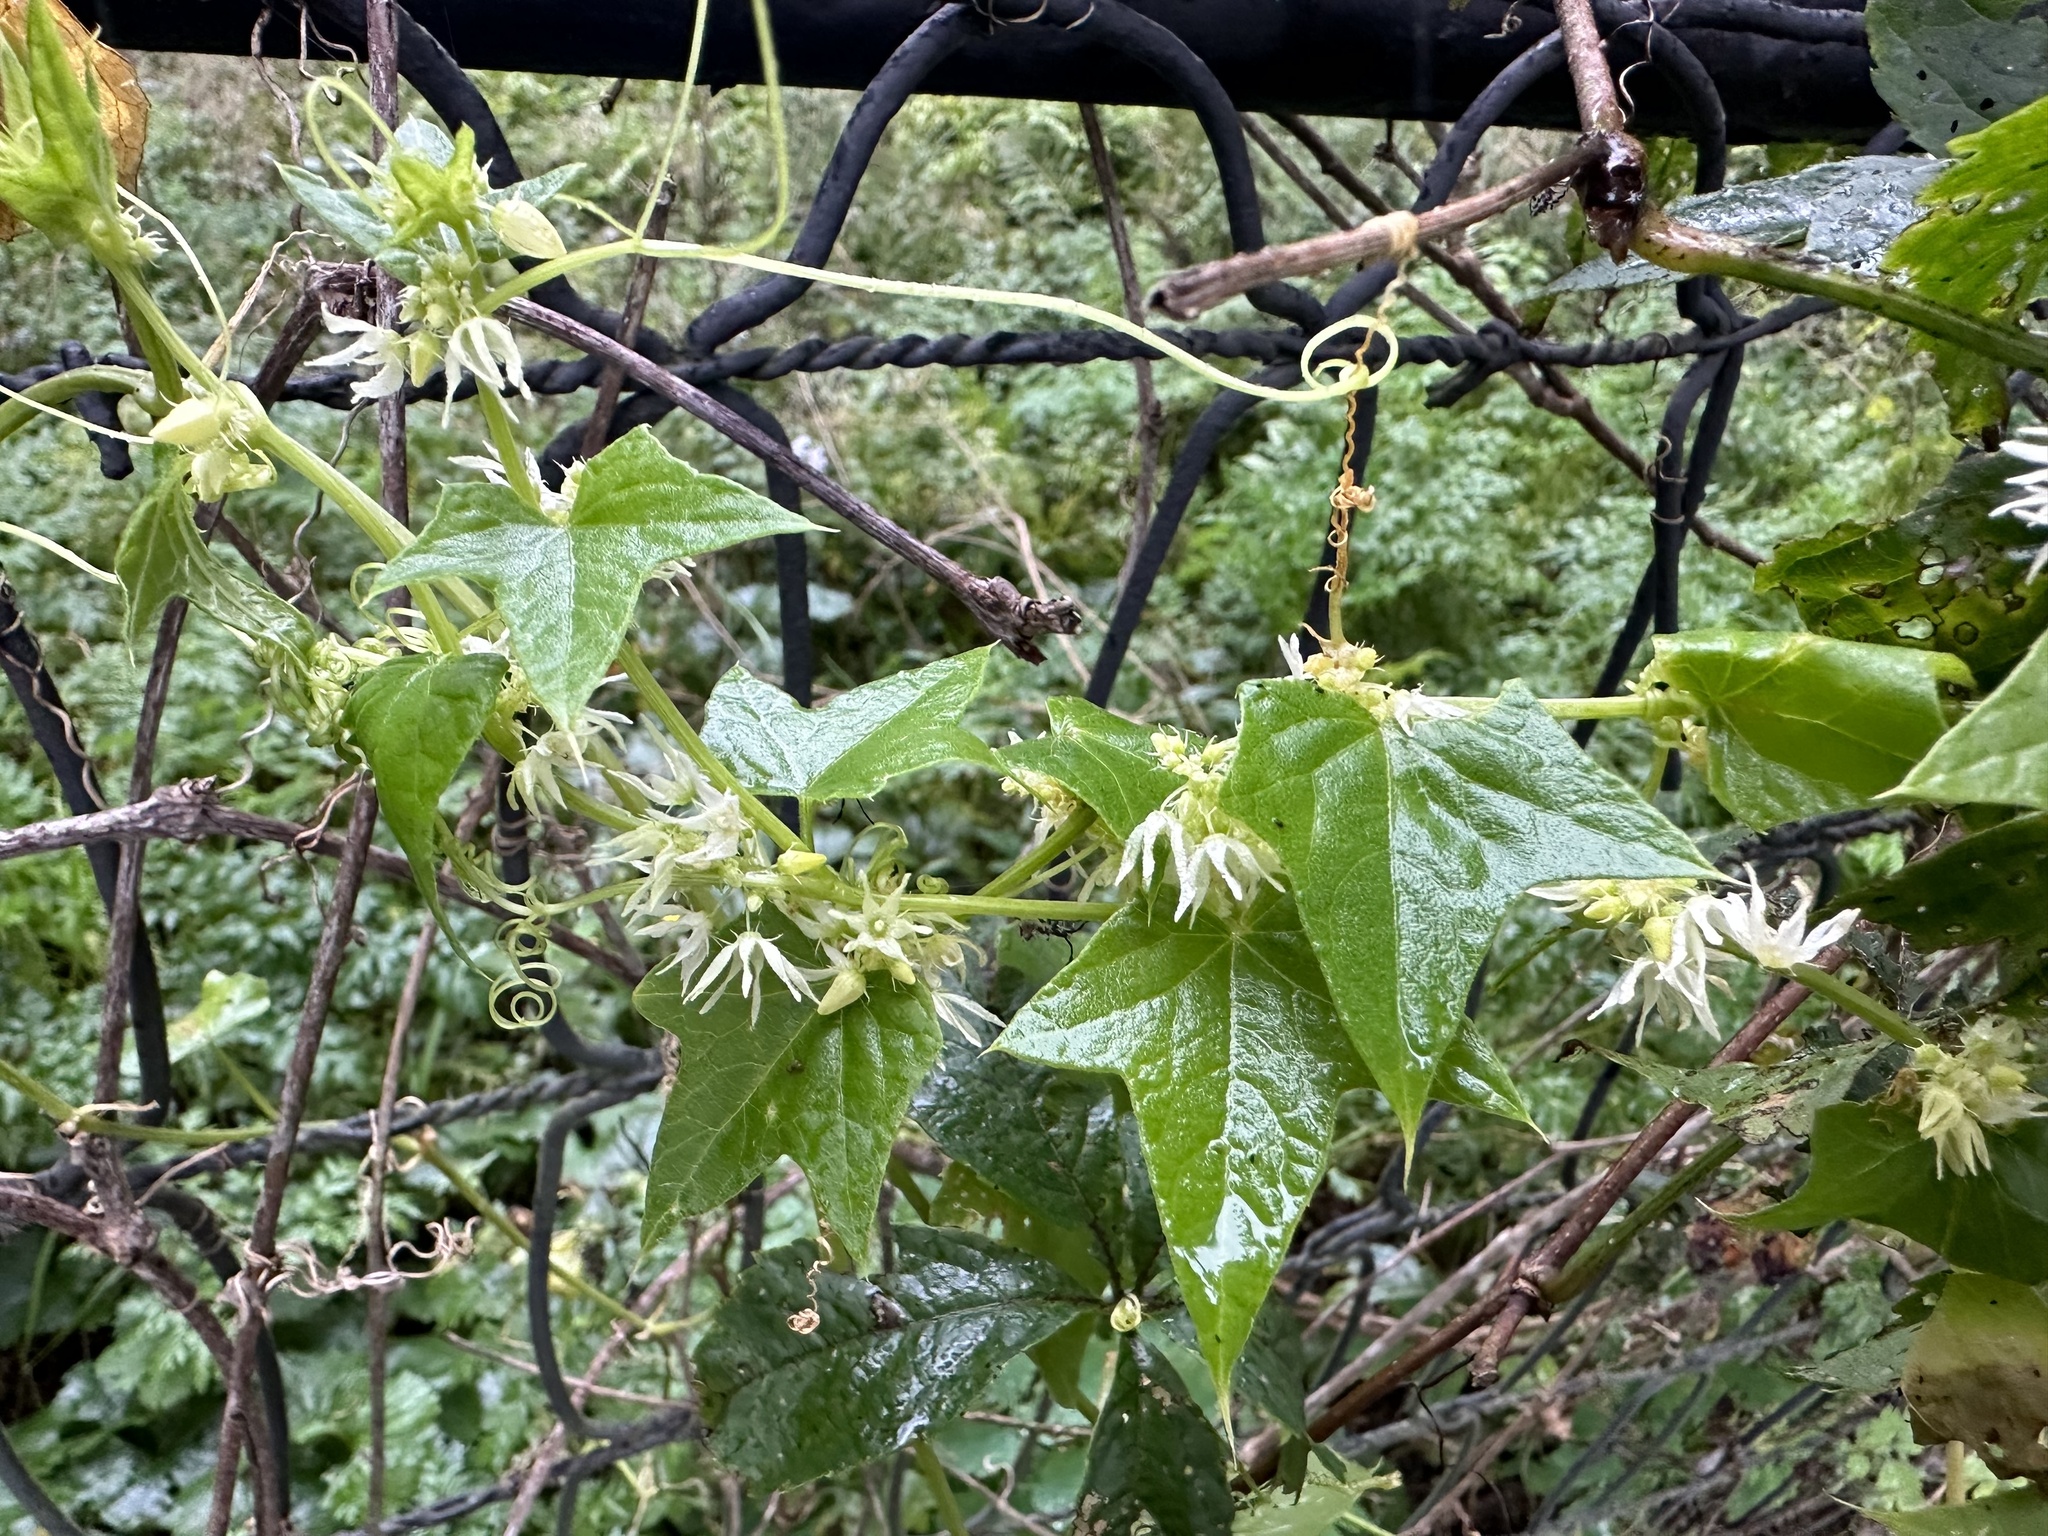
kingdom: Plantae
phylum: Tracheophyta
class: Magnoliopsida
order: Cucurbitales
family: Cucurbitaceae
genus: Echinocystis
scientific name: Echinocystis lobata
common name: Wild cucumber
